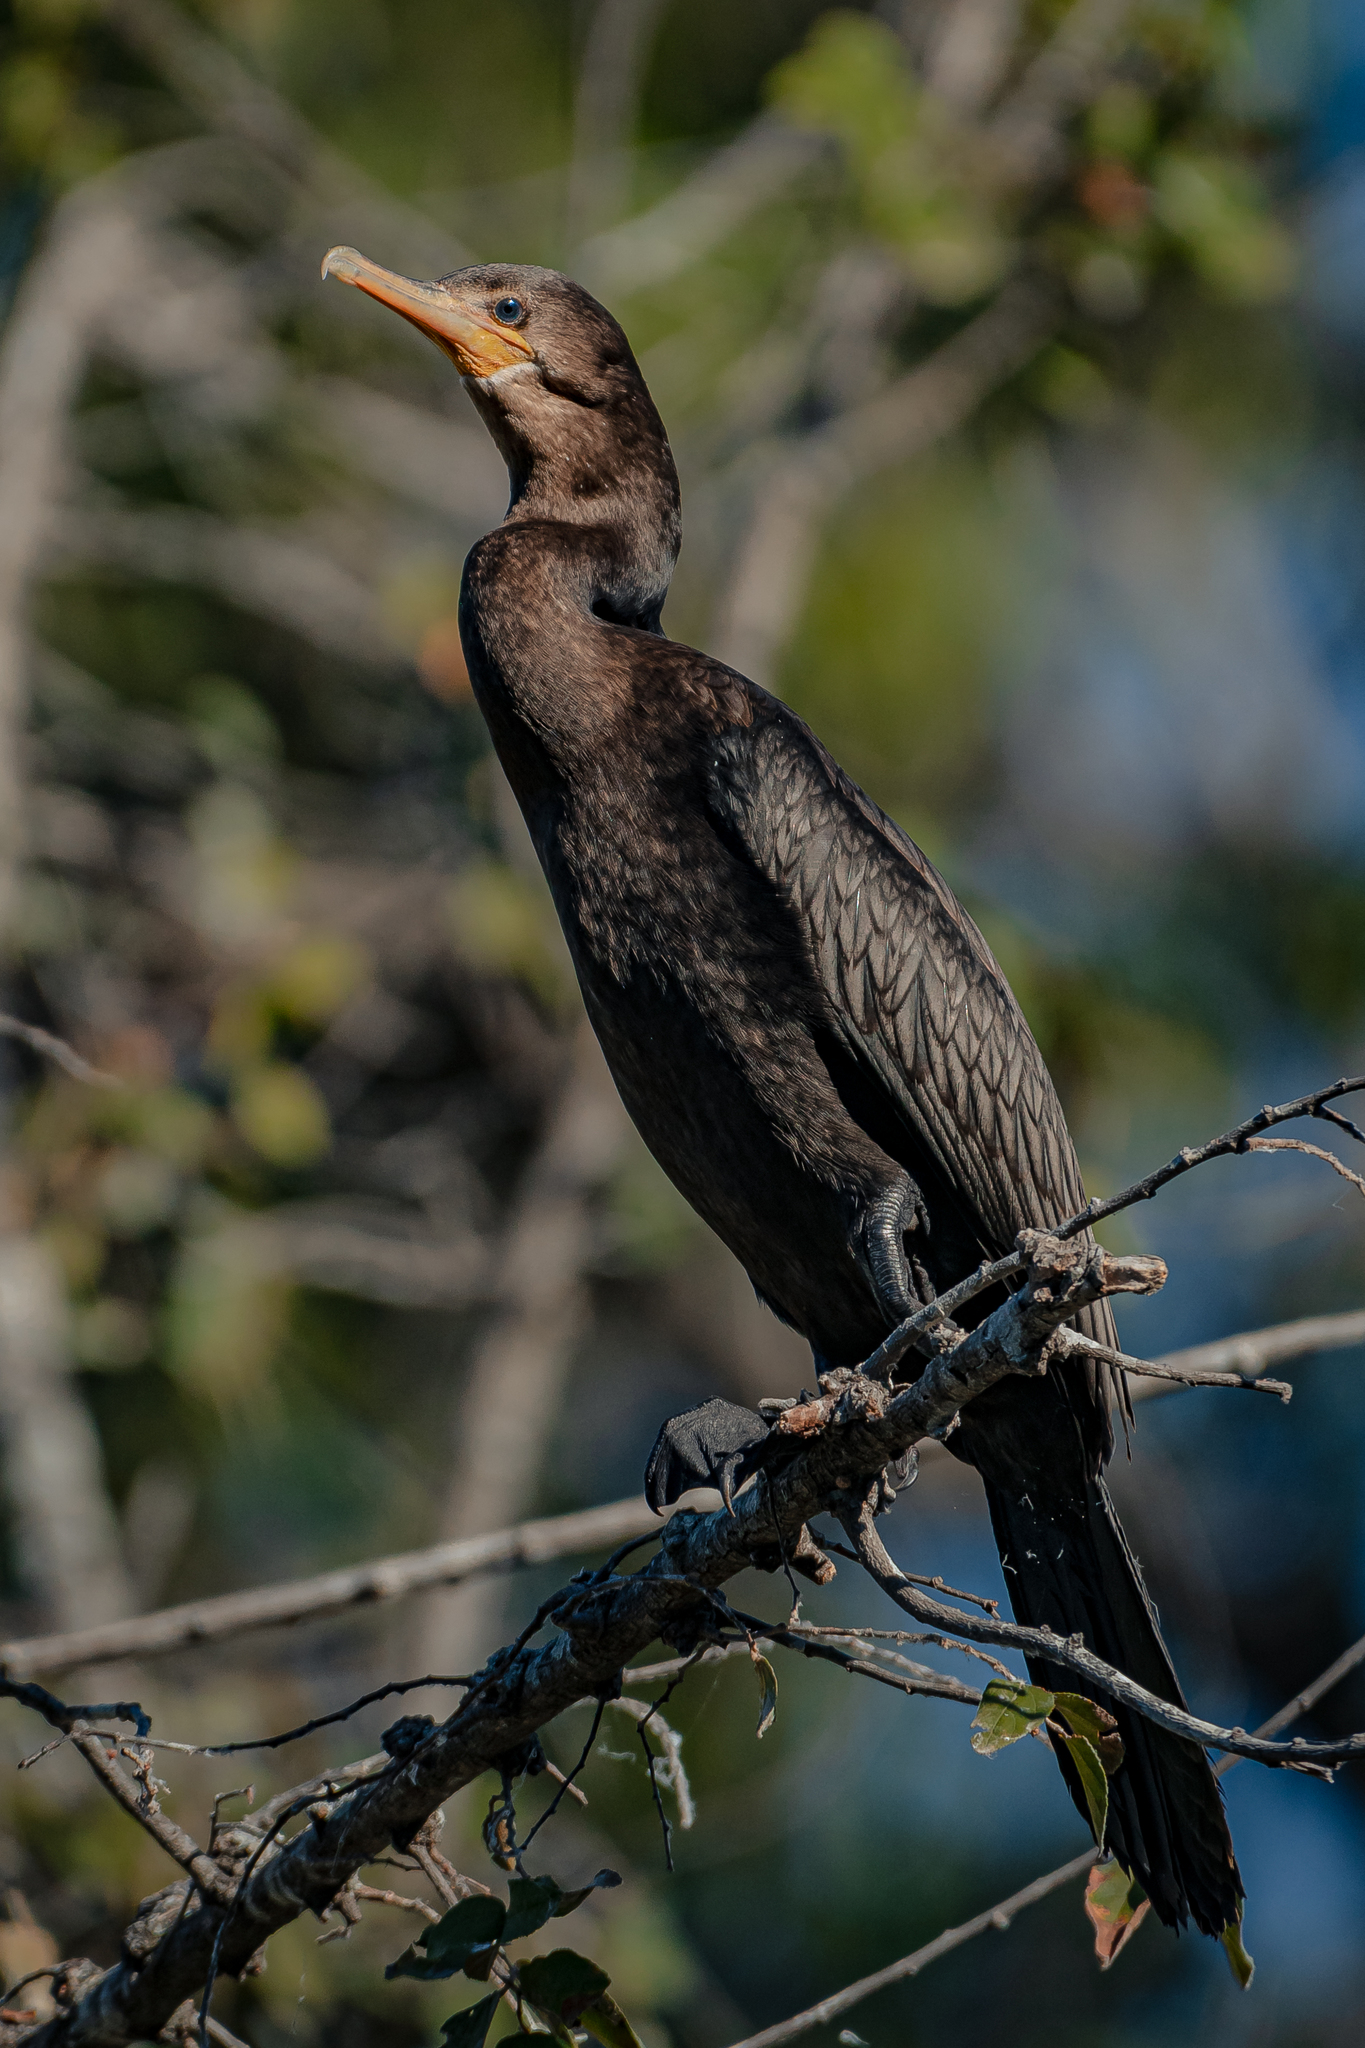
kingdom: Animalia
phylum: Chordata
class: Aves
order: Suliformes
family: Phalacrocoracidae
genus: Phalacrocorax
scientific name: Phalacrocorax brasilianus
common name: Neotropic cormorant
